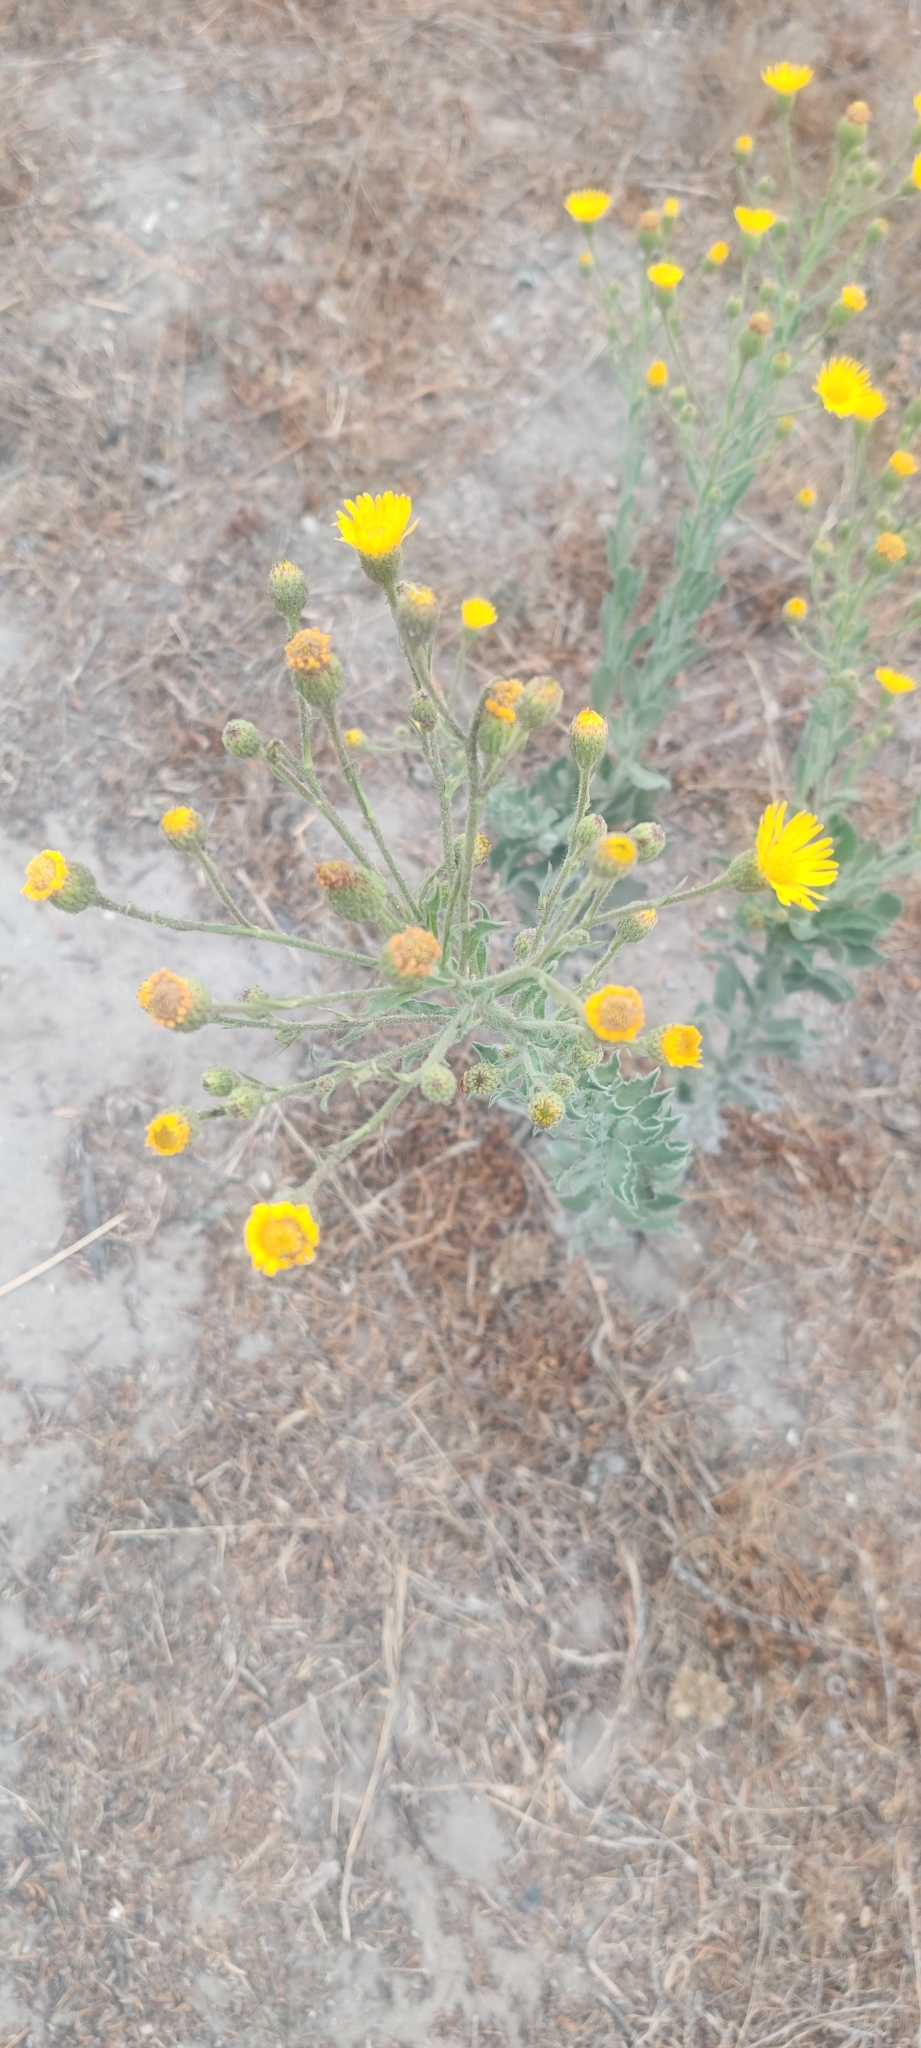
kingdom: Plantae
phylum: Tracheophyta
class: Magnoliopsida
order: Asterales
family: Asteraceae
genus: Heterotheca
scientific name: Heterotheca grandiflora
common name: Telegraphweed
